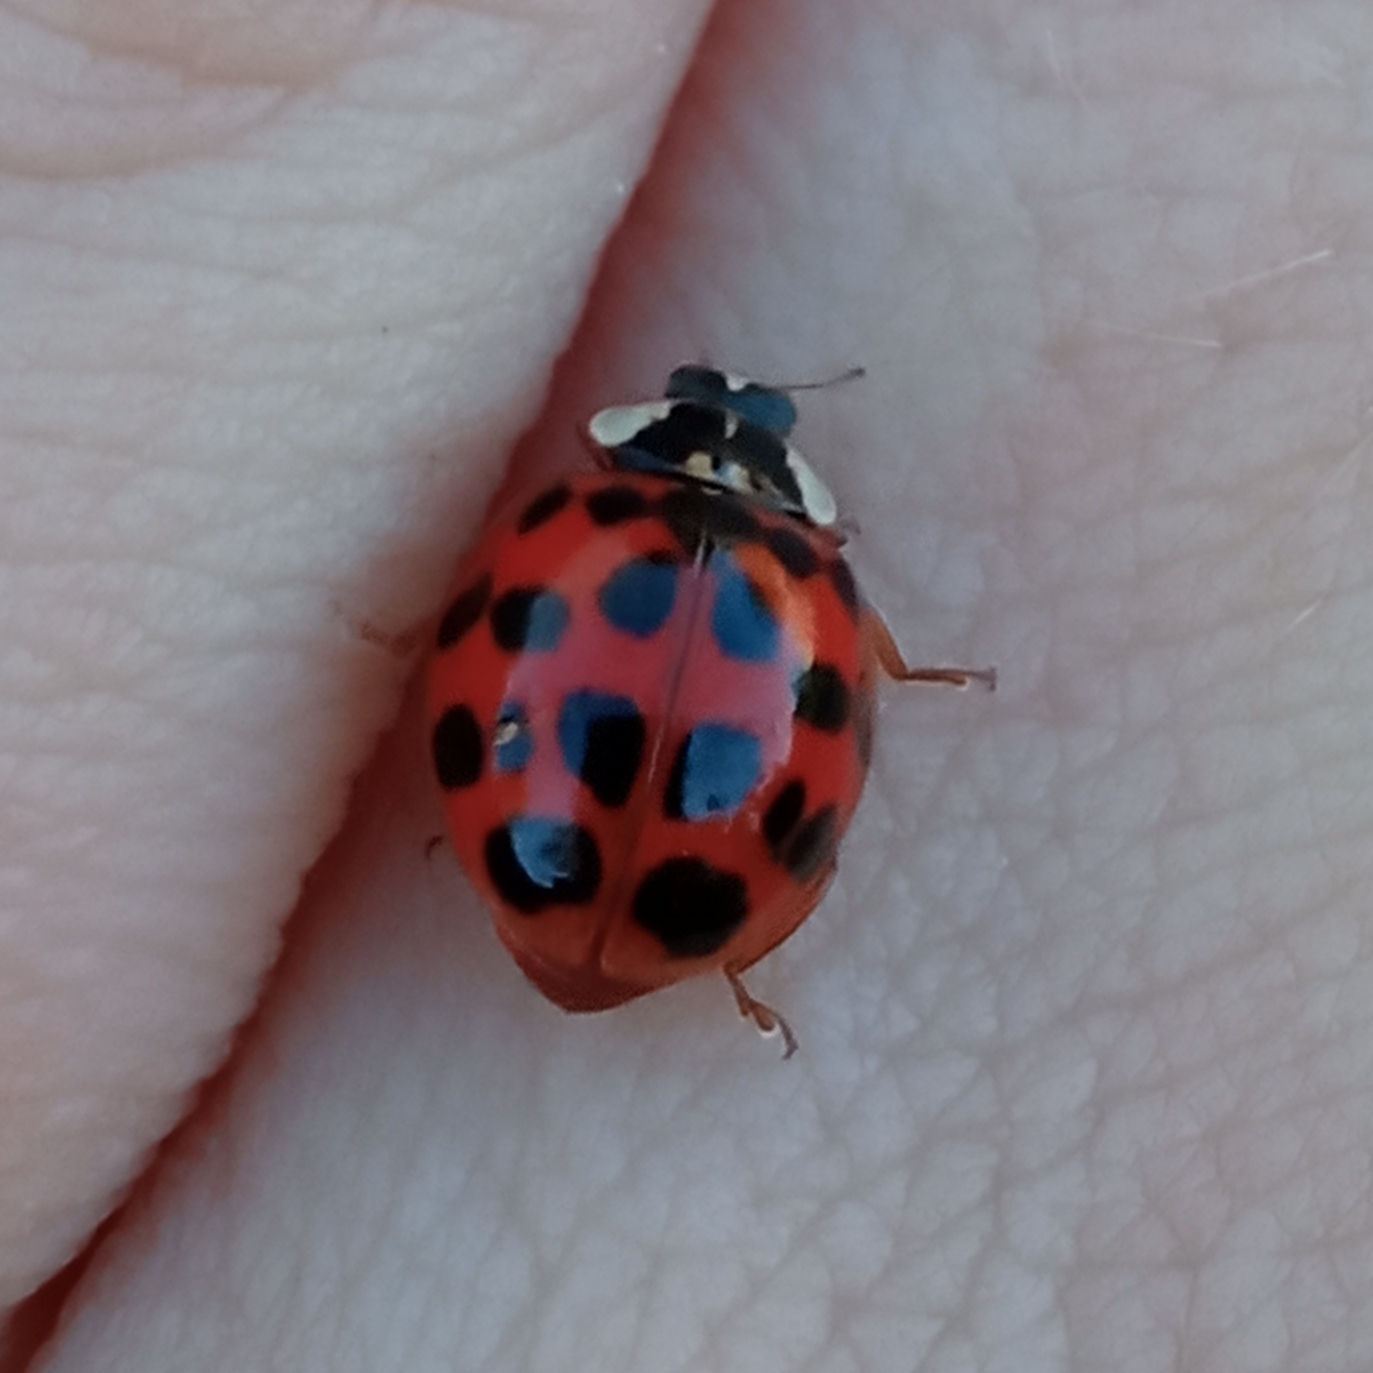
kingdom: Animalia
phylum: Arthropoda
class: Insecta
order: Coleoptera
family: Coccinellidae
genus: Harmonia
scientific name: Harmonia axyridis
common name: Harlequin ladybird
